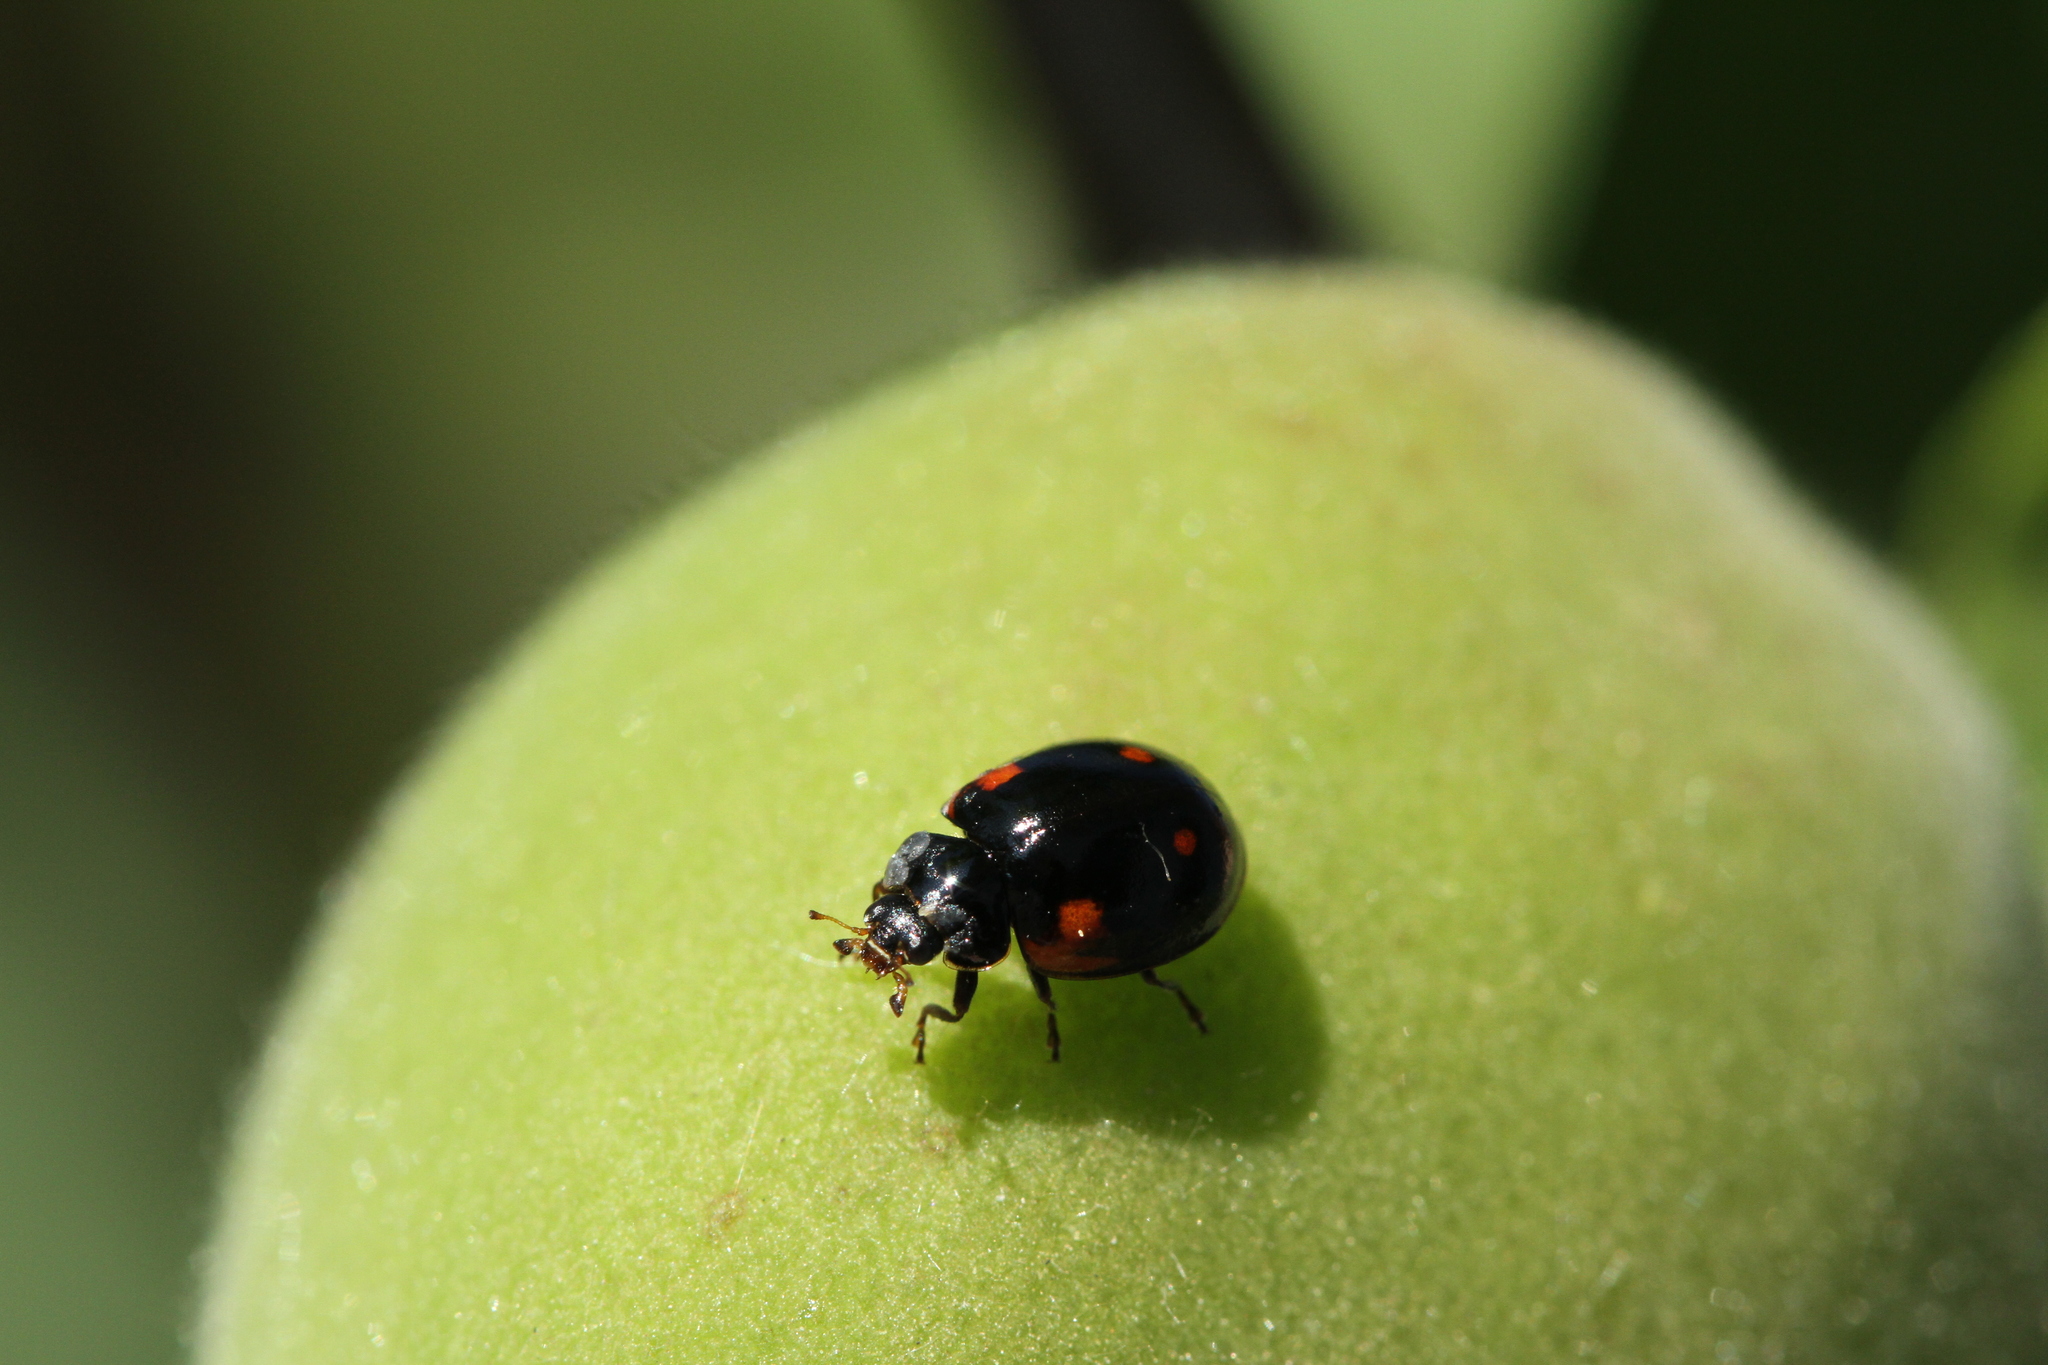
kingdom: Animalia
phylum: Arthropoda
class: Insecta
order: Coleoptera
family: Coccinellidae
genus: Brumus
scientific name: Brumus quadripustulatus
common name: Ladybird beetle
